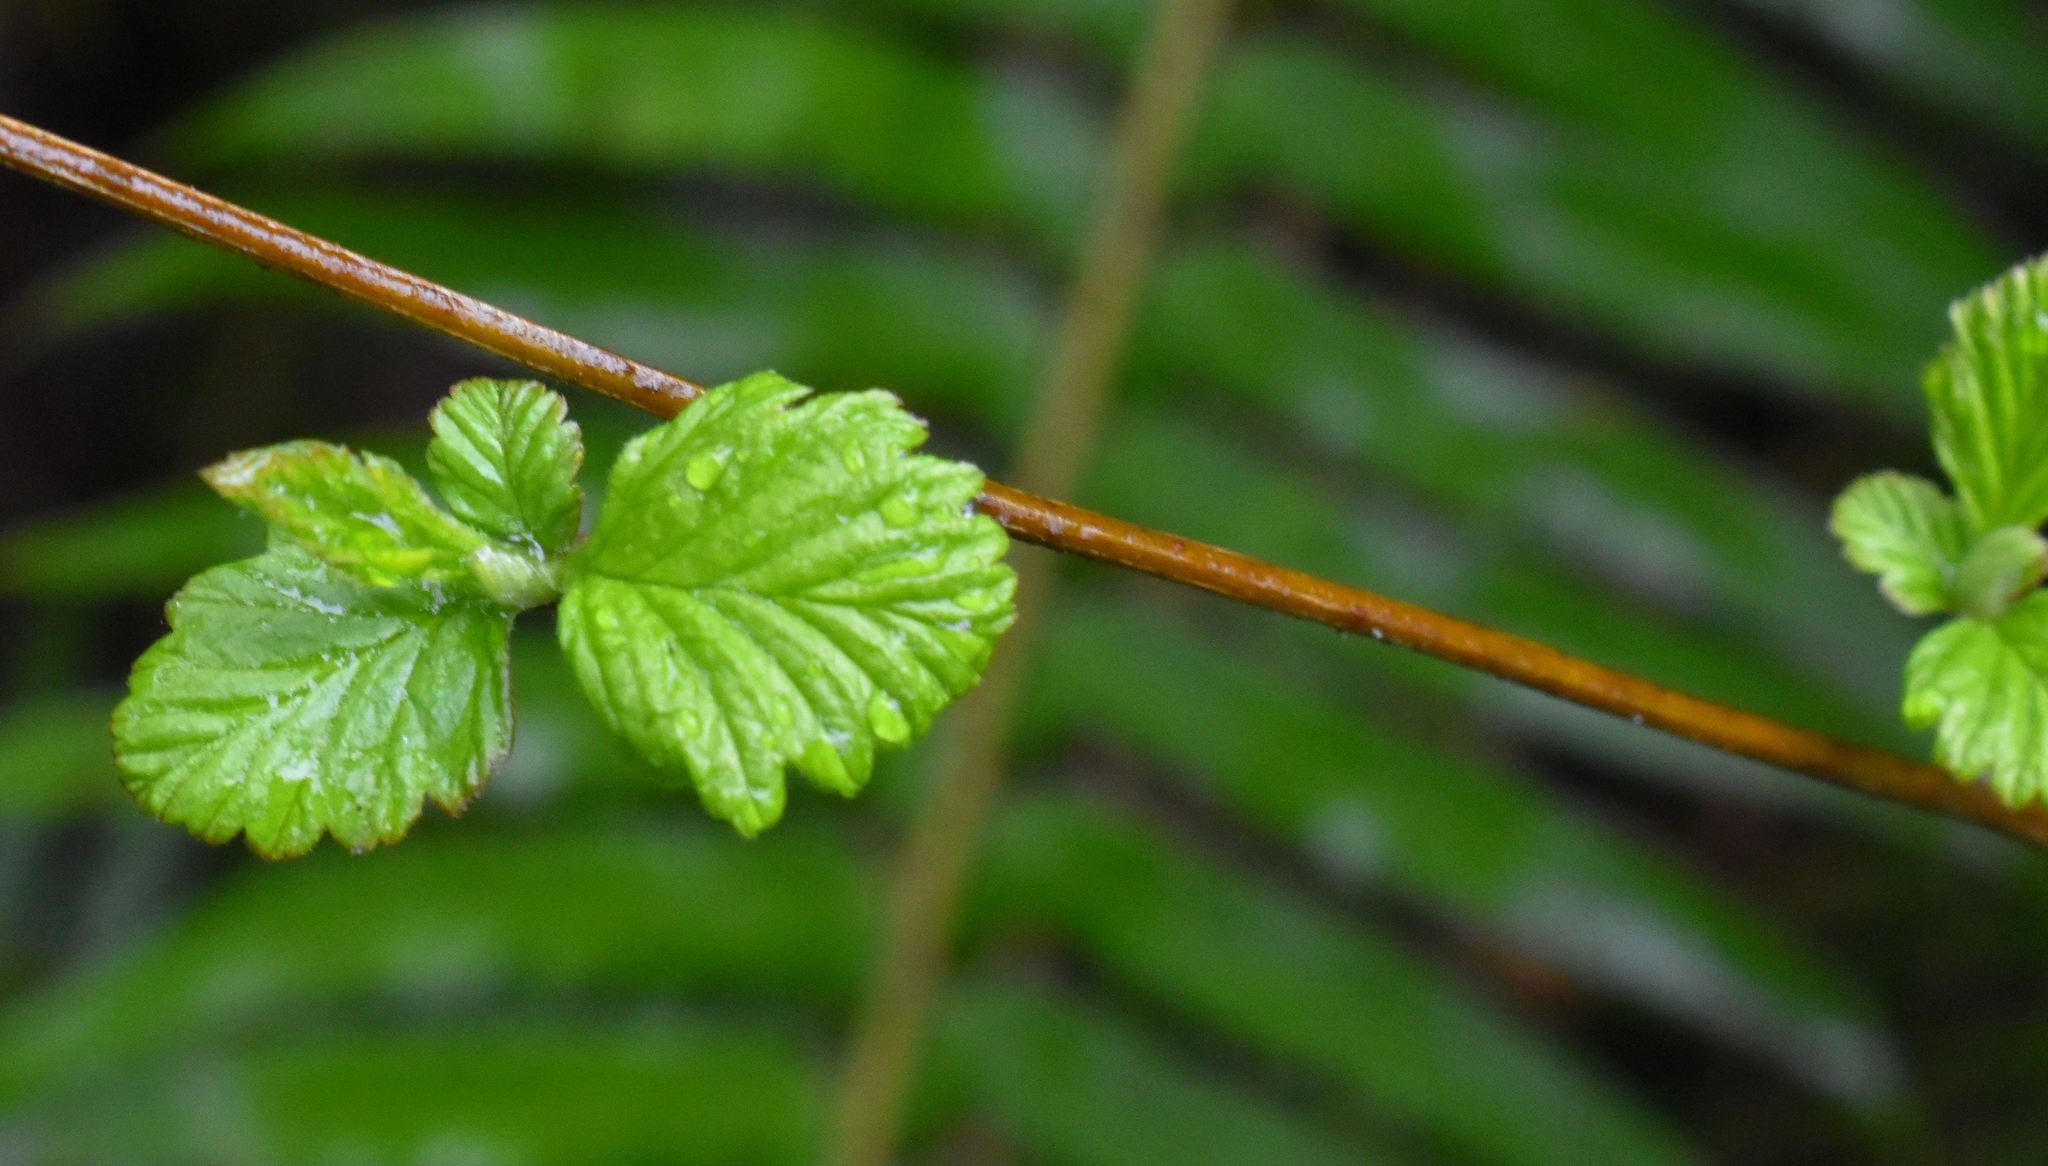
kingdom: Plantae
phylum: Tracheophyta
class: Magnoliopsida
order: Rosales
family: Rosaceae
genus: Holodiscus
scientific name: Holodiscus discolor
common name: Oceanspray
